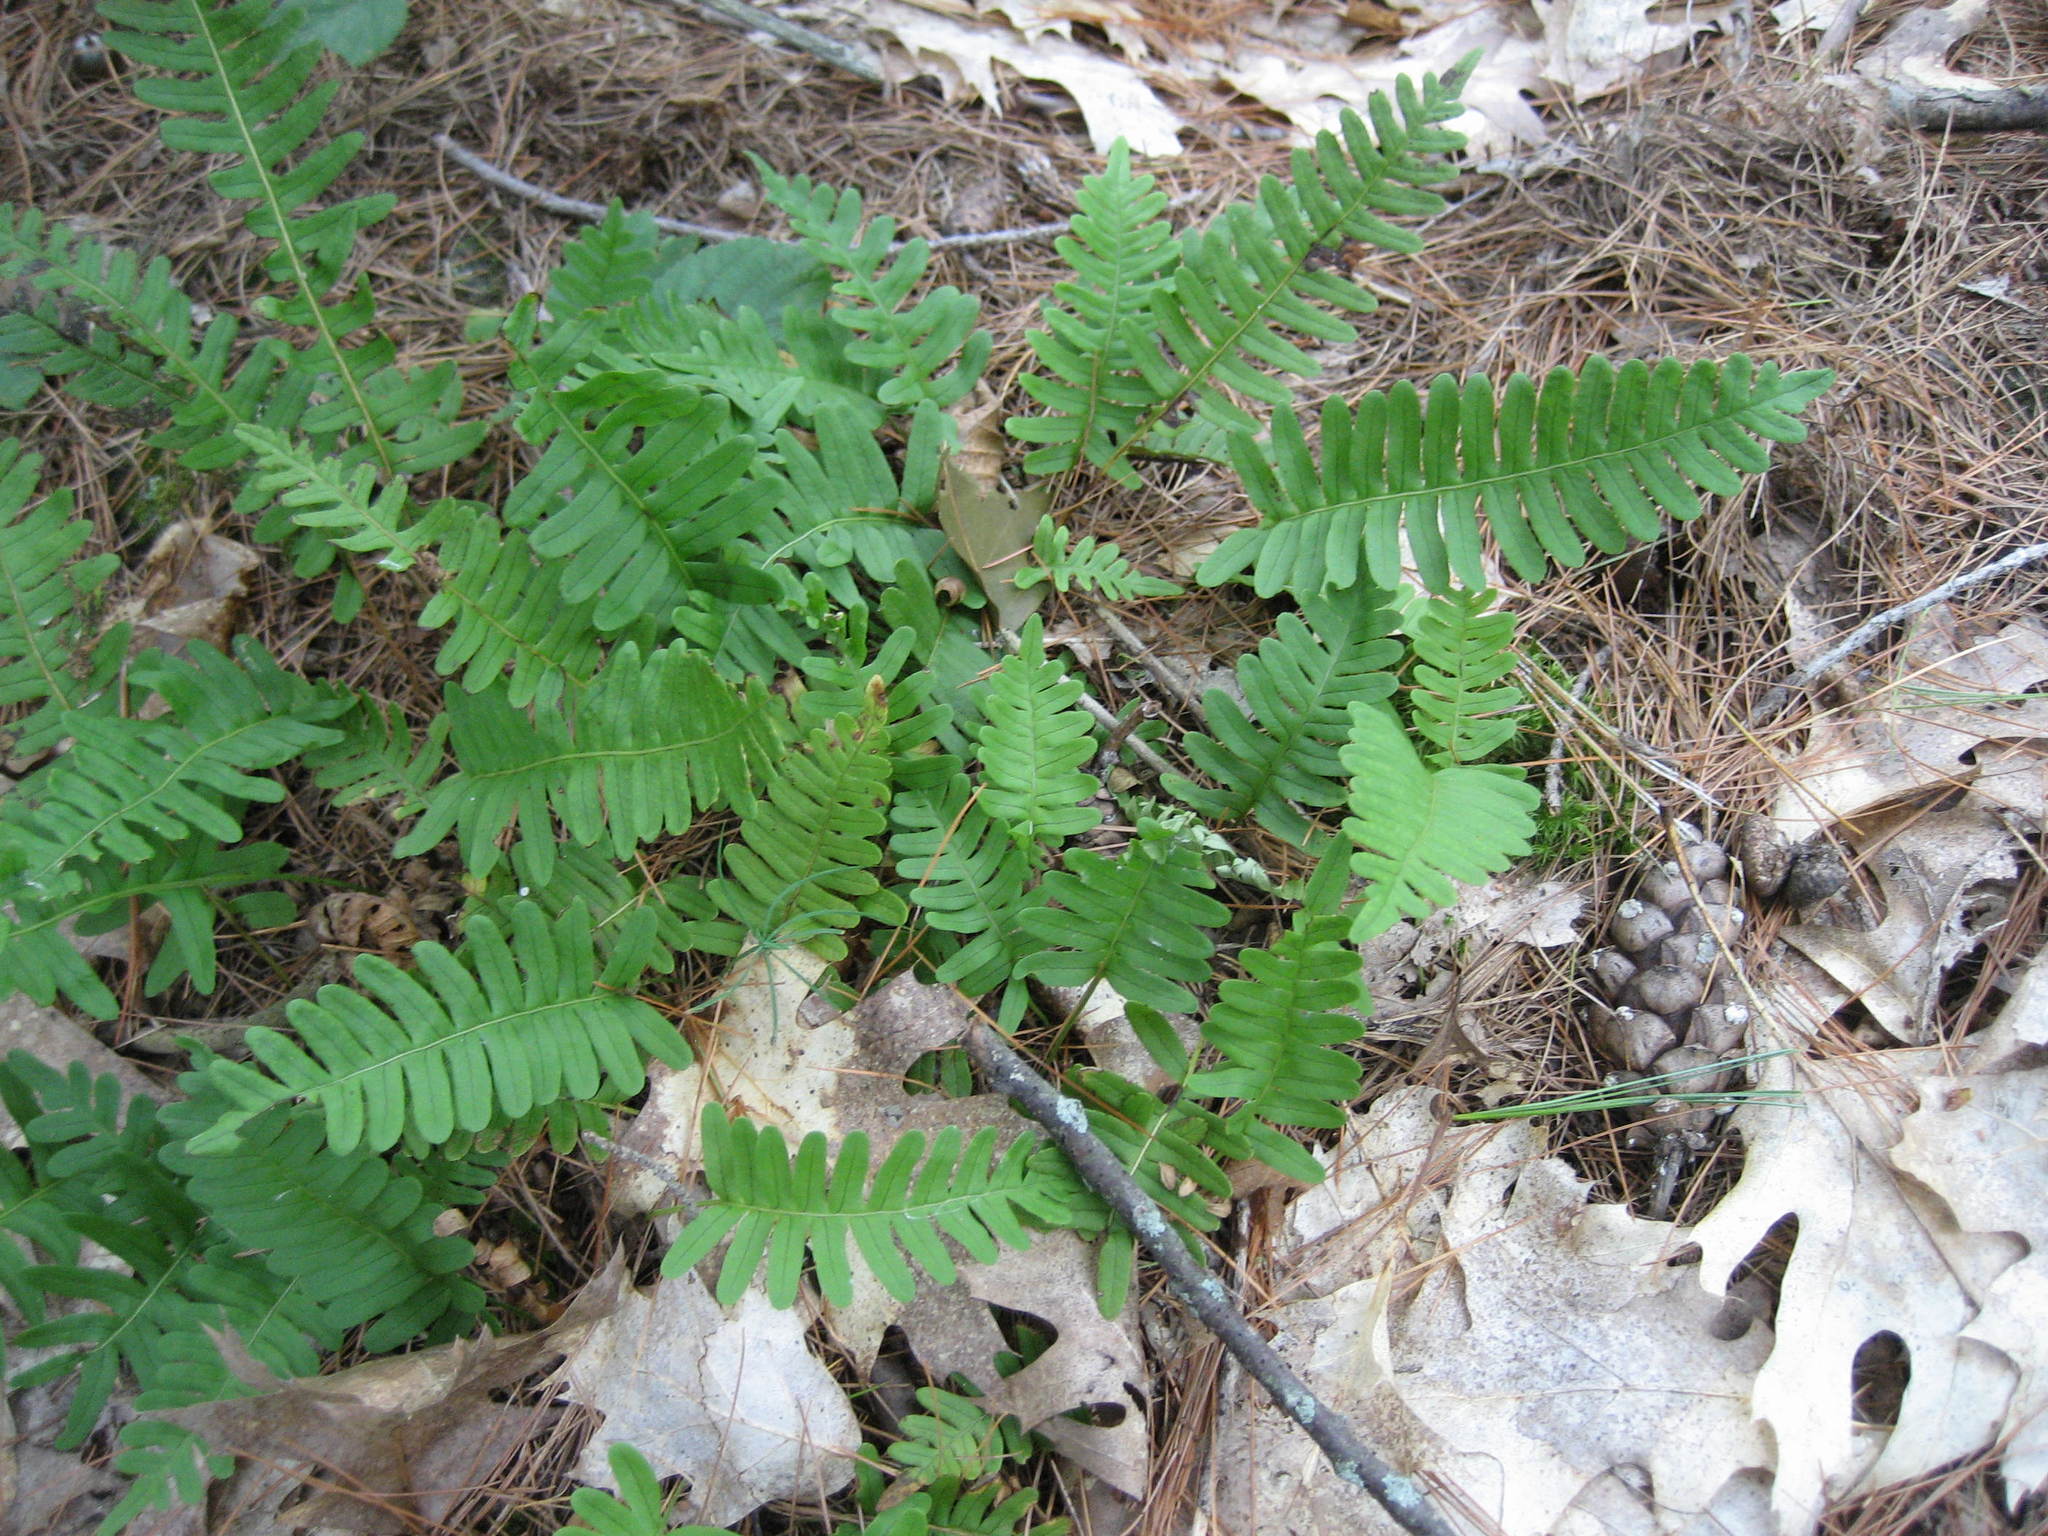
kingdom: Plantae
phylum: Tracheophyta
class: Polypodiopsida
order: Polypodiales
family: Polypodiaceae
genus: Polypodium
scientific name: Polypodium virginianum
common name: American wall fern
